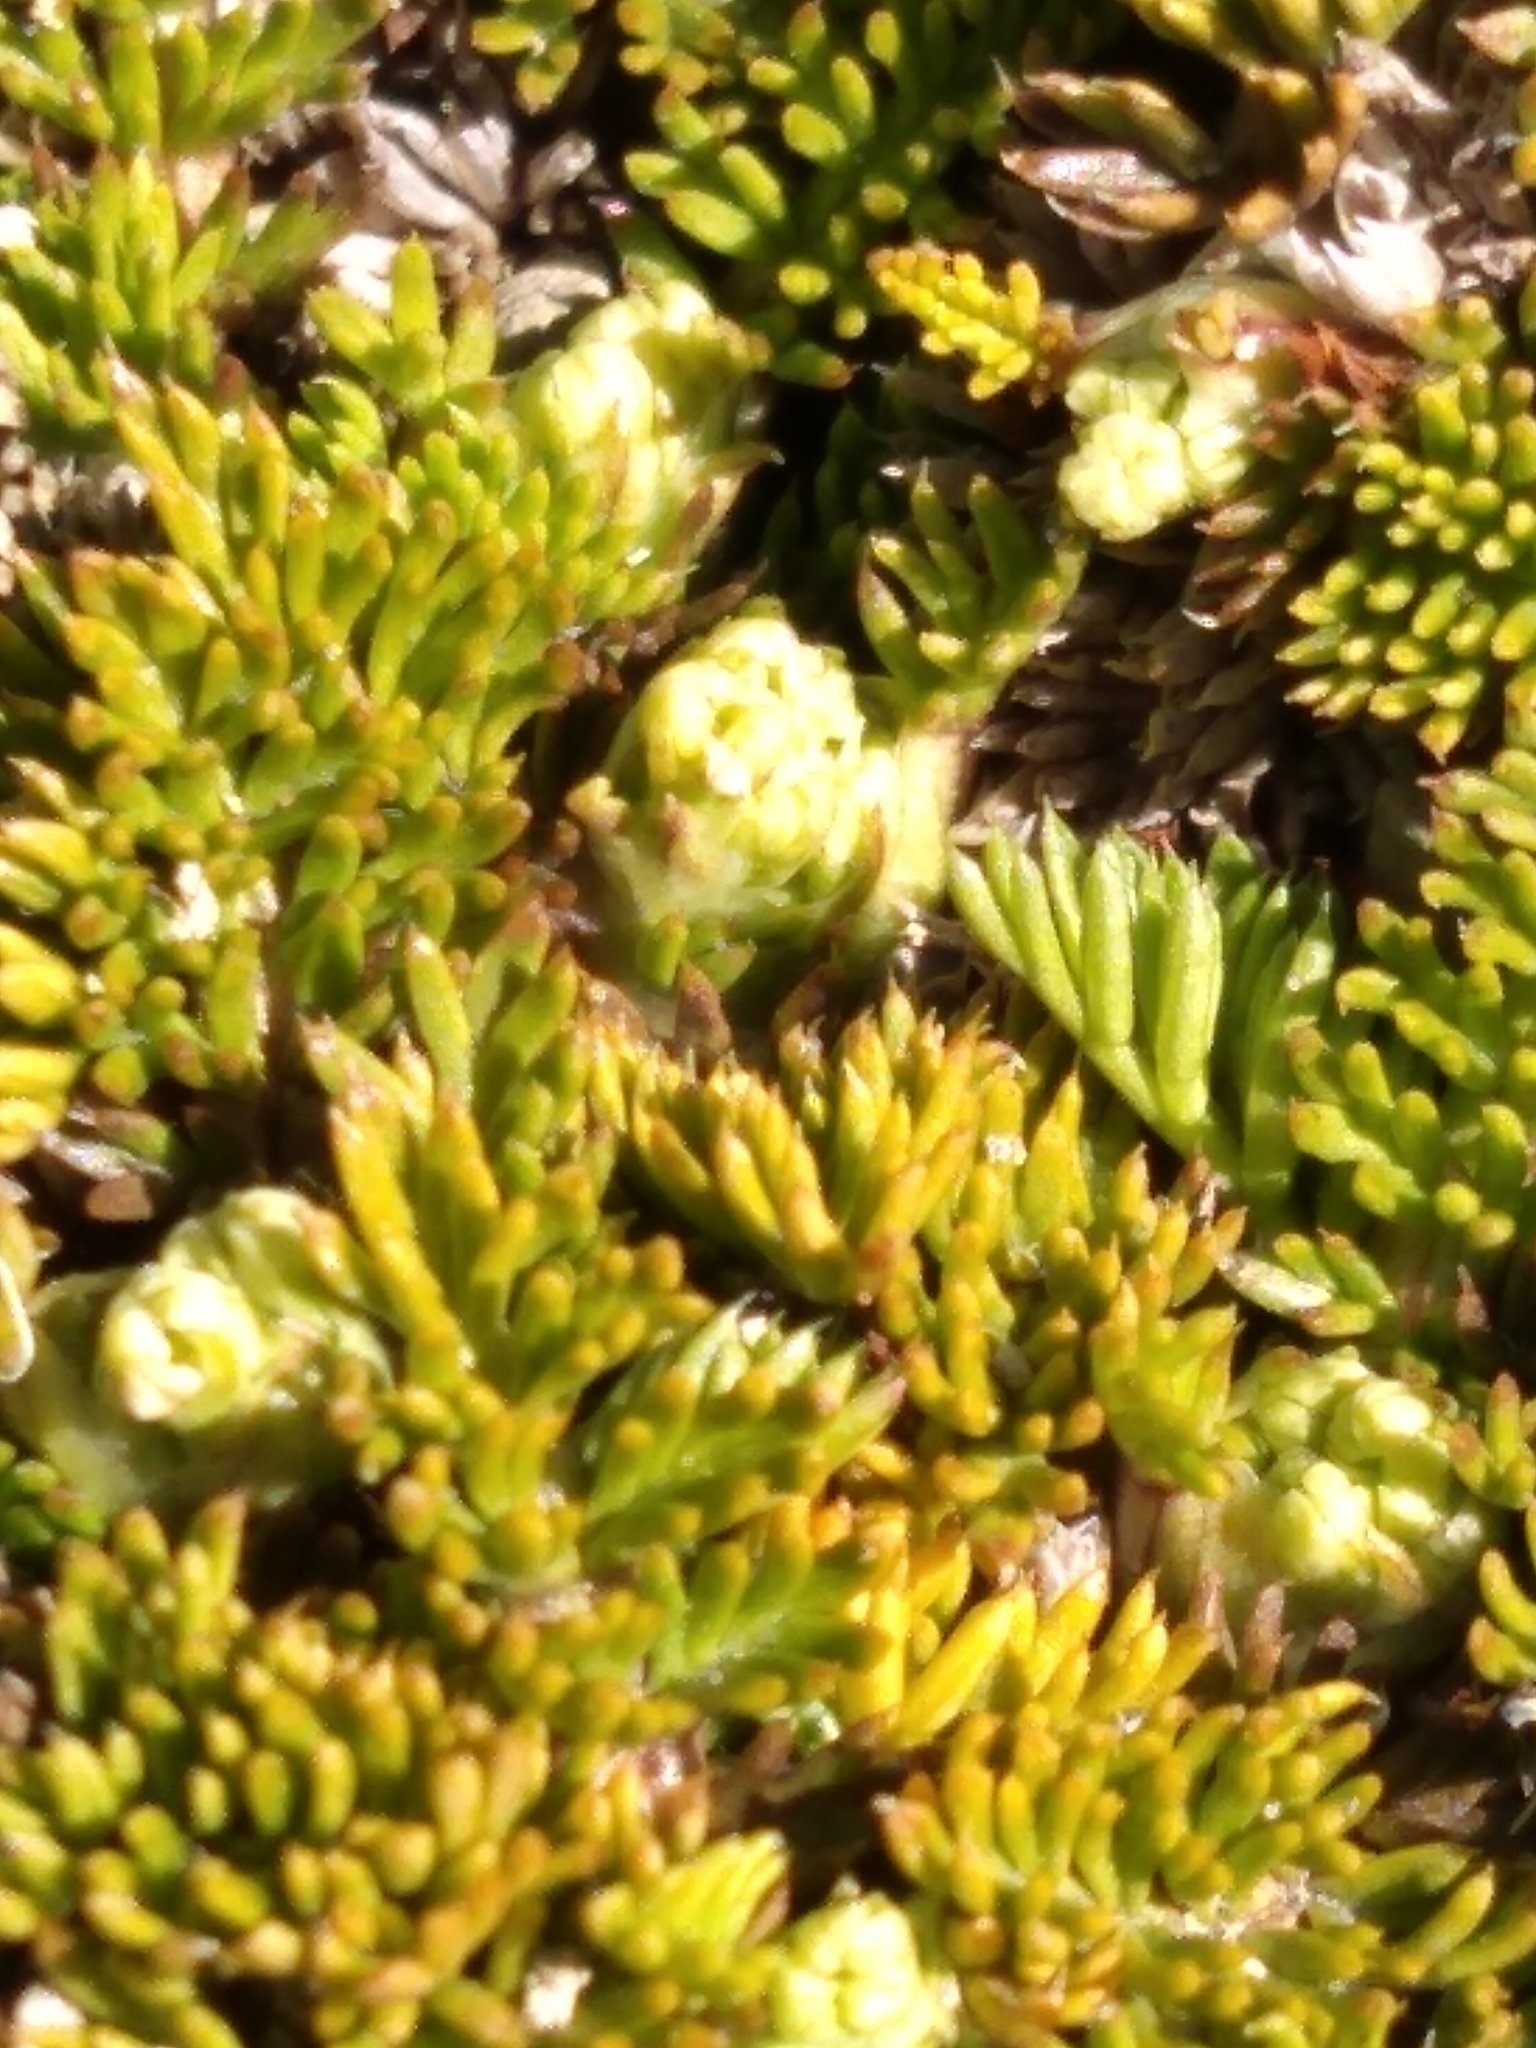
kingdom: Plantae
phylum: Tracheophyta
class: Magnoliopsida
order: Apiales
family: Apiaceae
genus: Anisotome
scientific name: Anisotome imbricata
